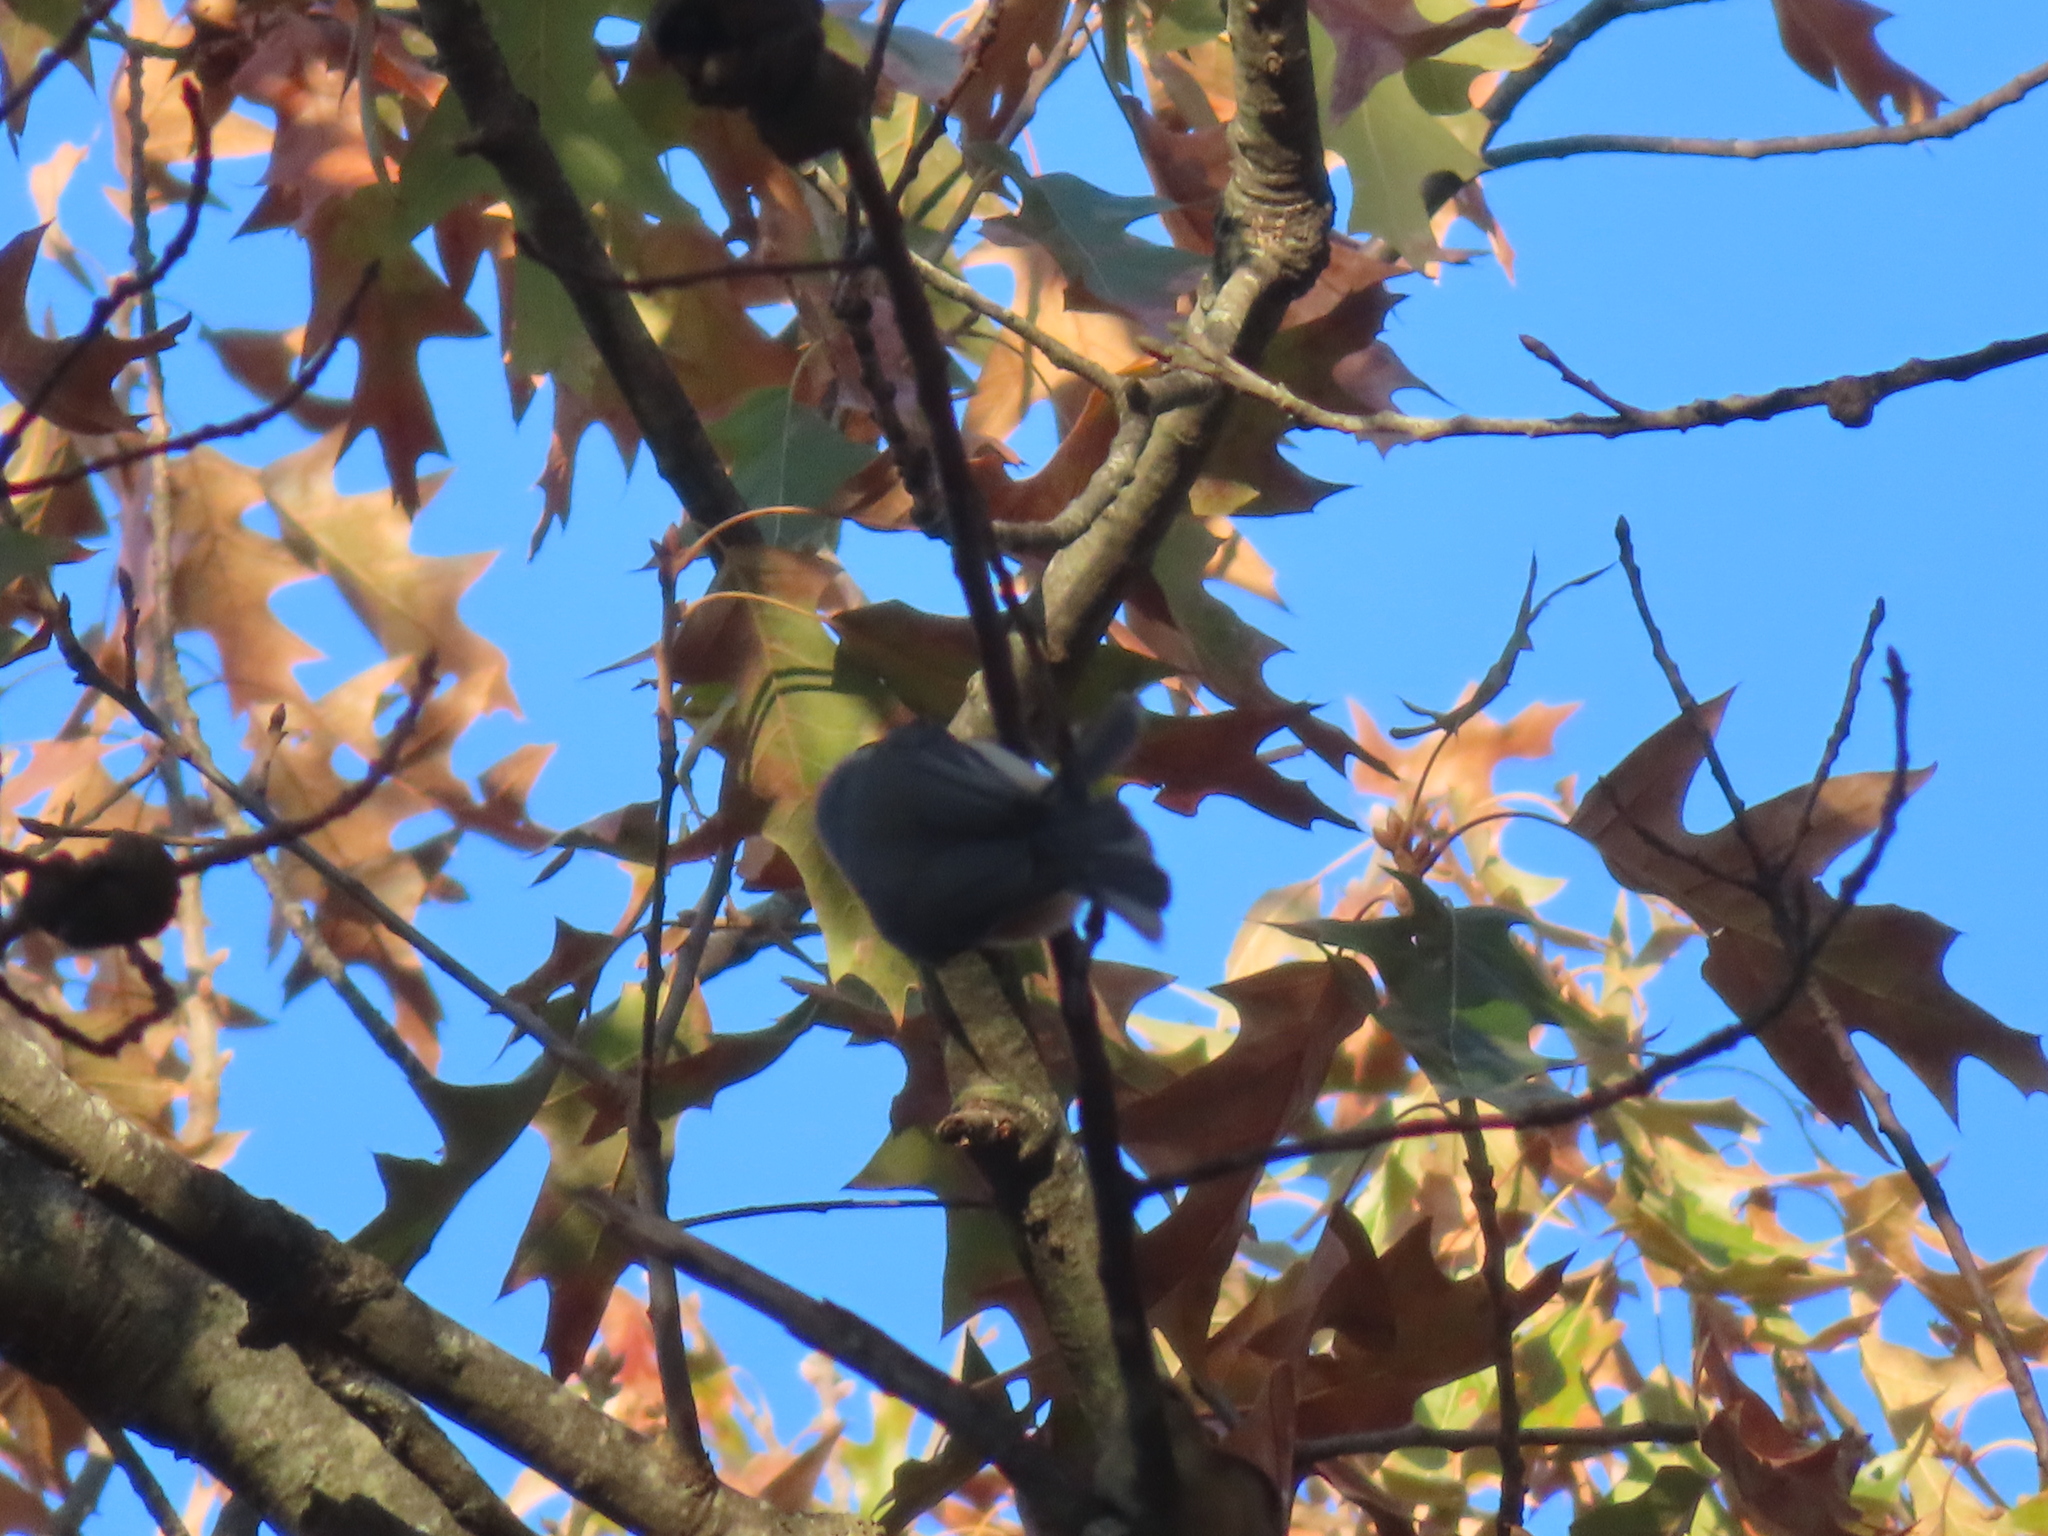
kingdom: Animalia
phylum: Chordata
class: Aves
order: Passeriformes
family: Paridae
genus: Baeolophus
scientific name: Baeolophus bicolor
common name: Tufted titmouse
